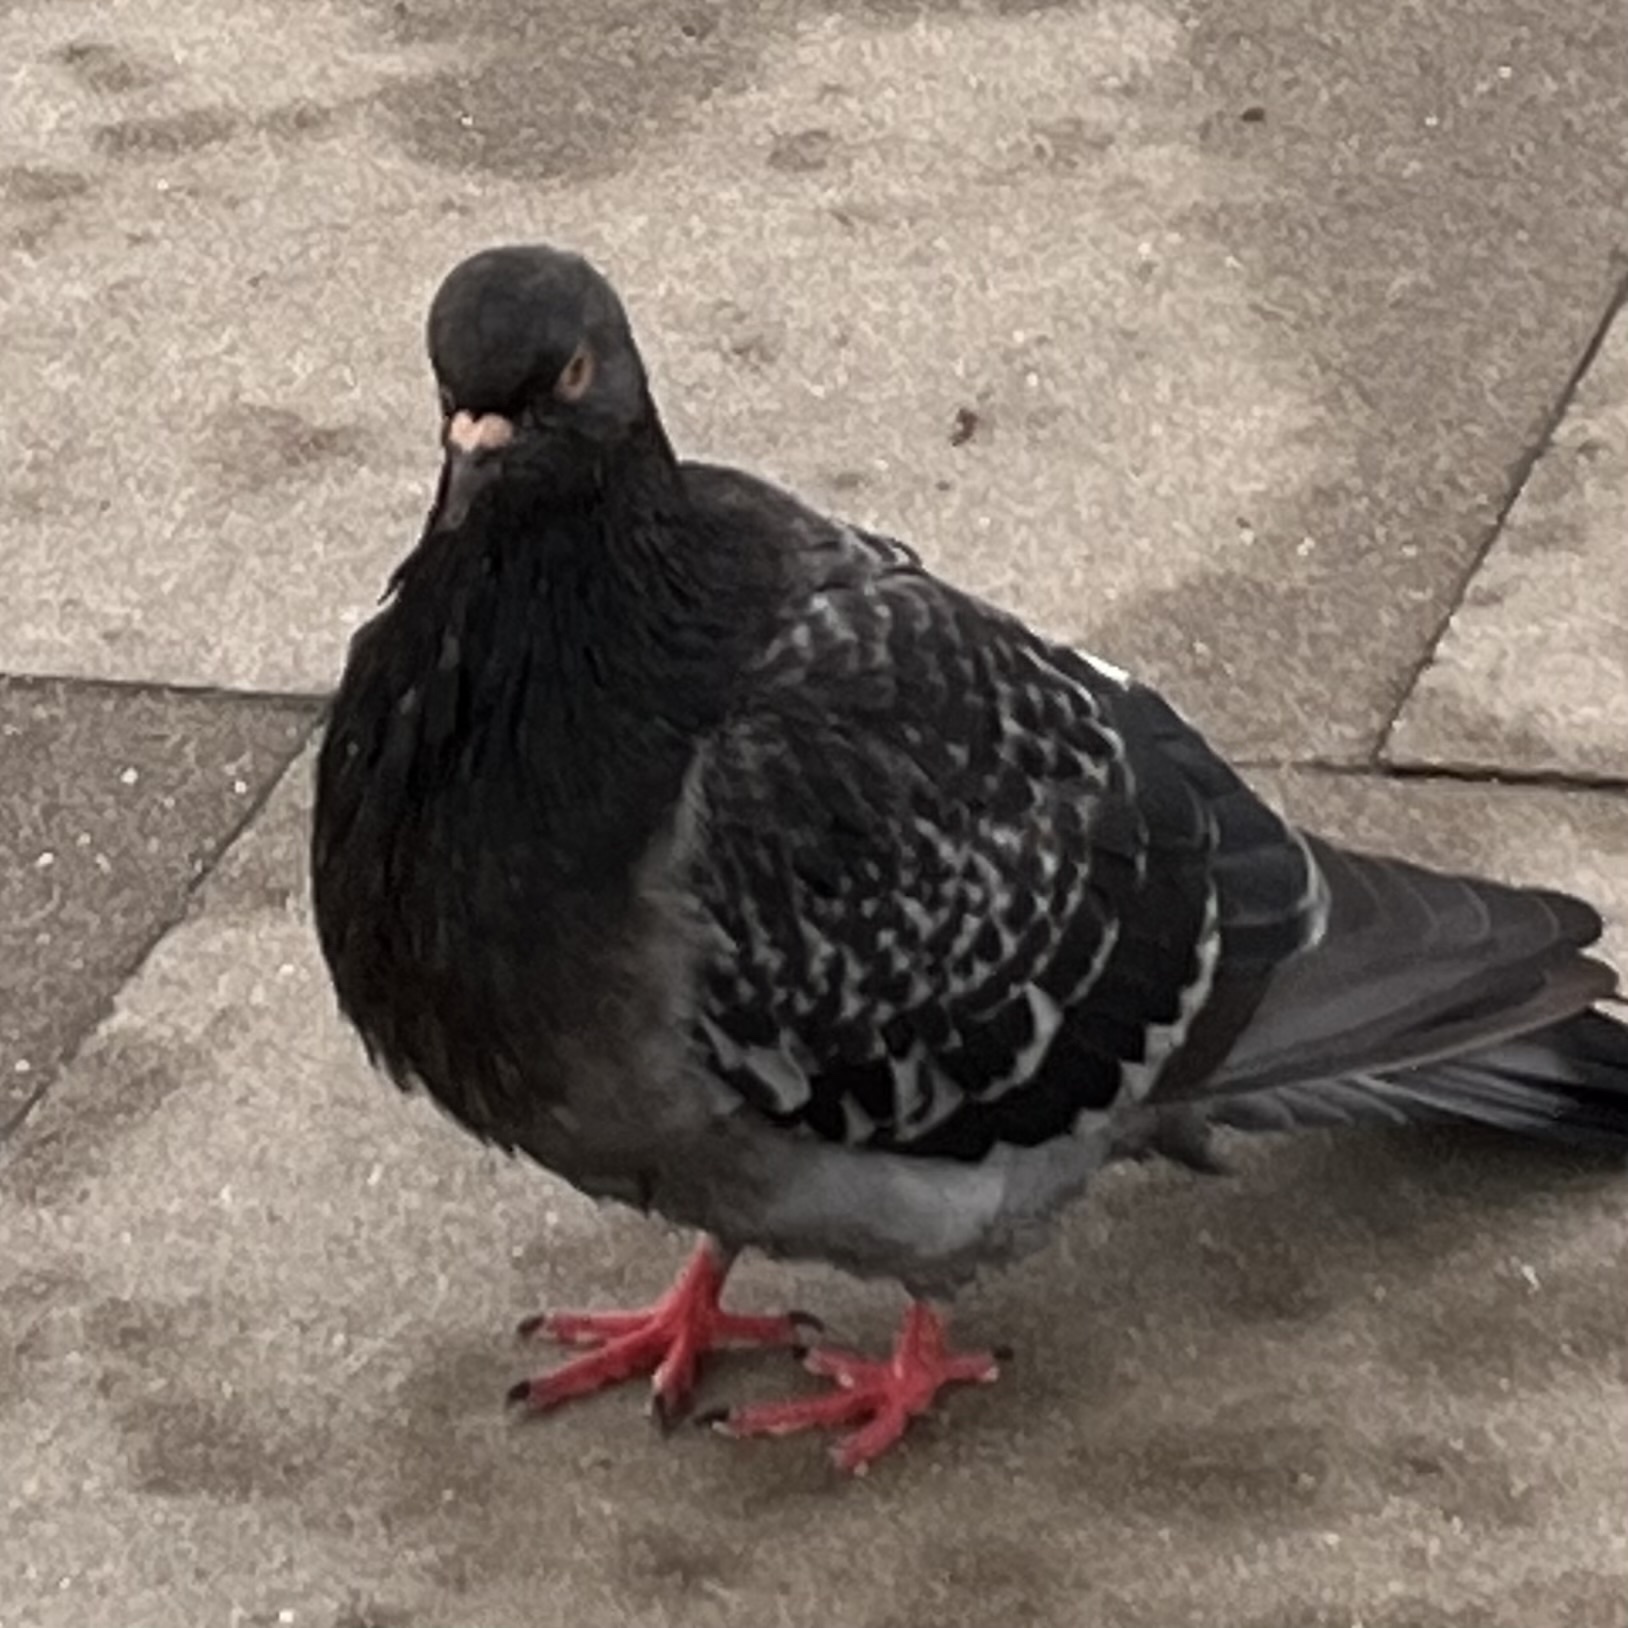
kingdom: Animalia
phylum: Chordata
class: Aves
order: Columbiformes
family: Columbidae
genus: Columba
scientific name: Columba livia
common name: Rock pigeon
